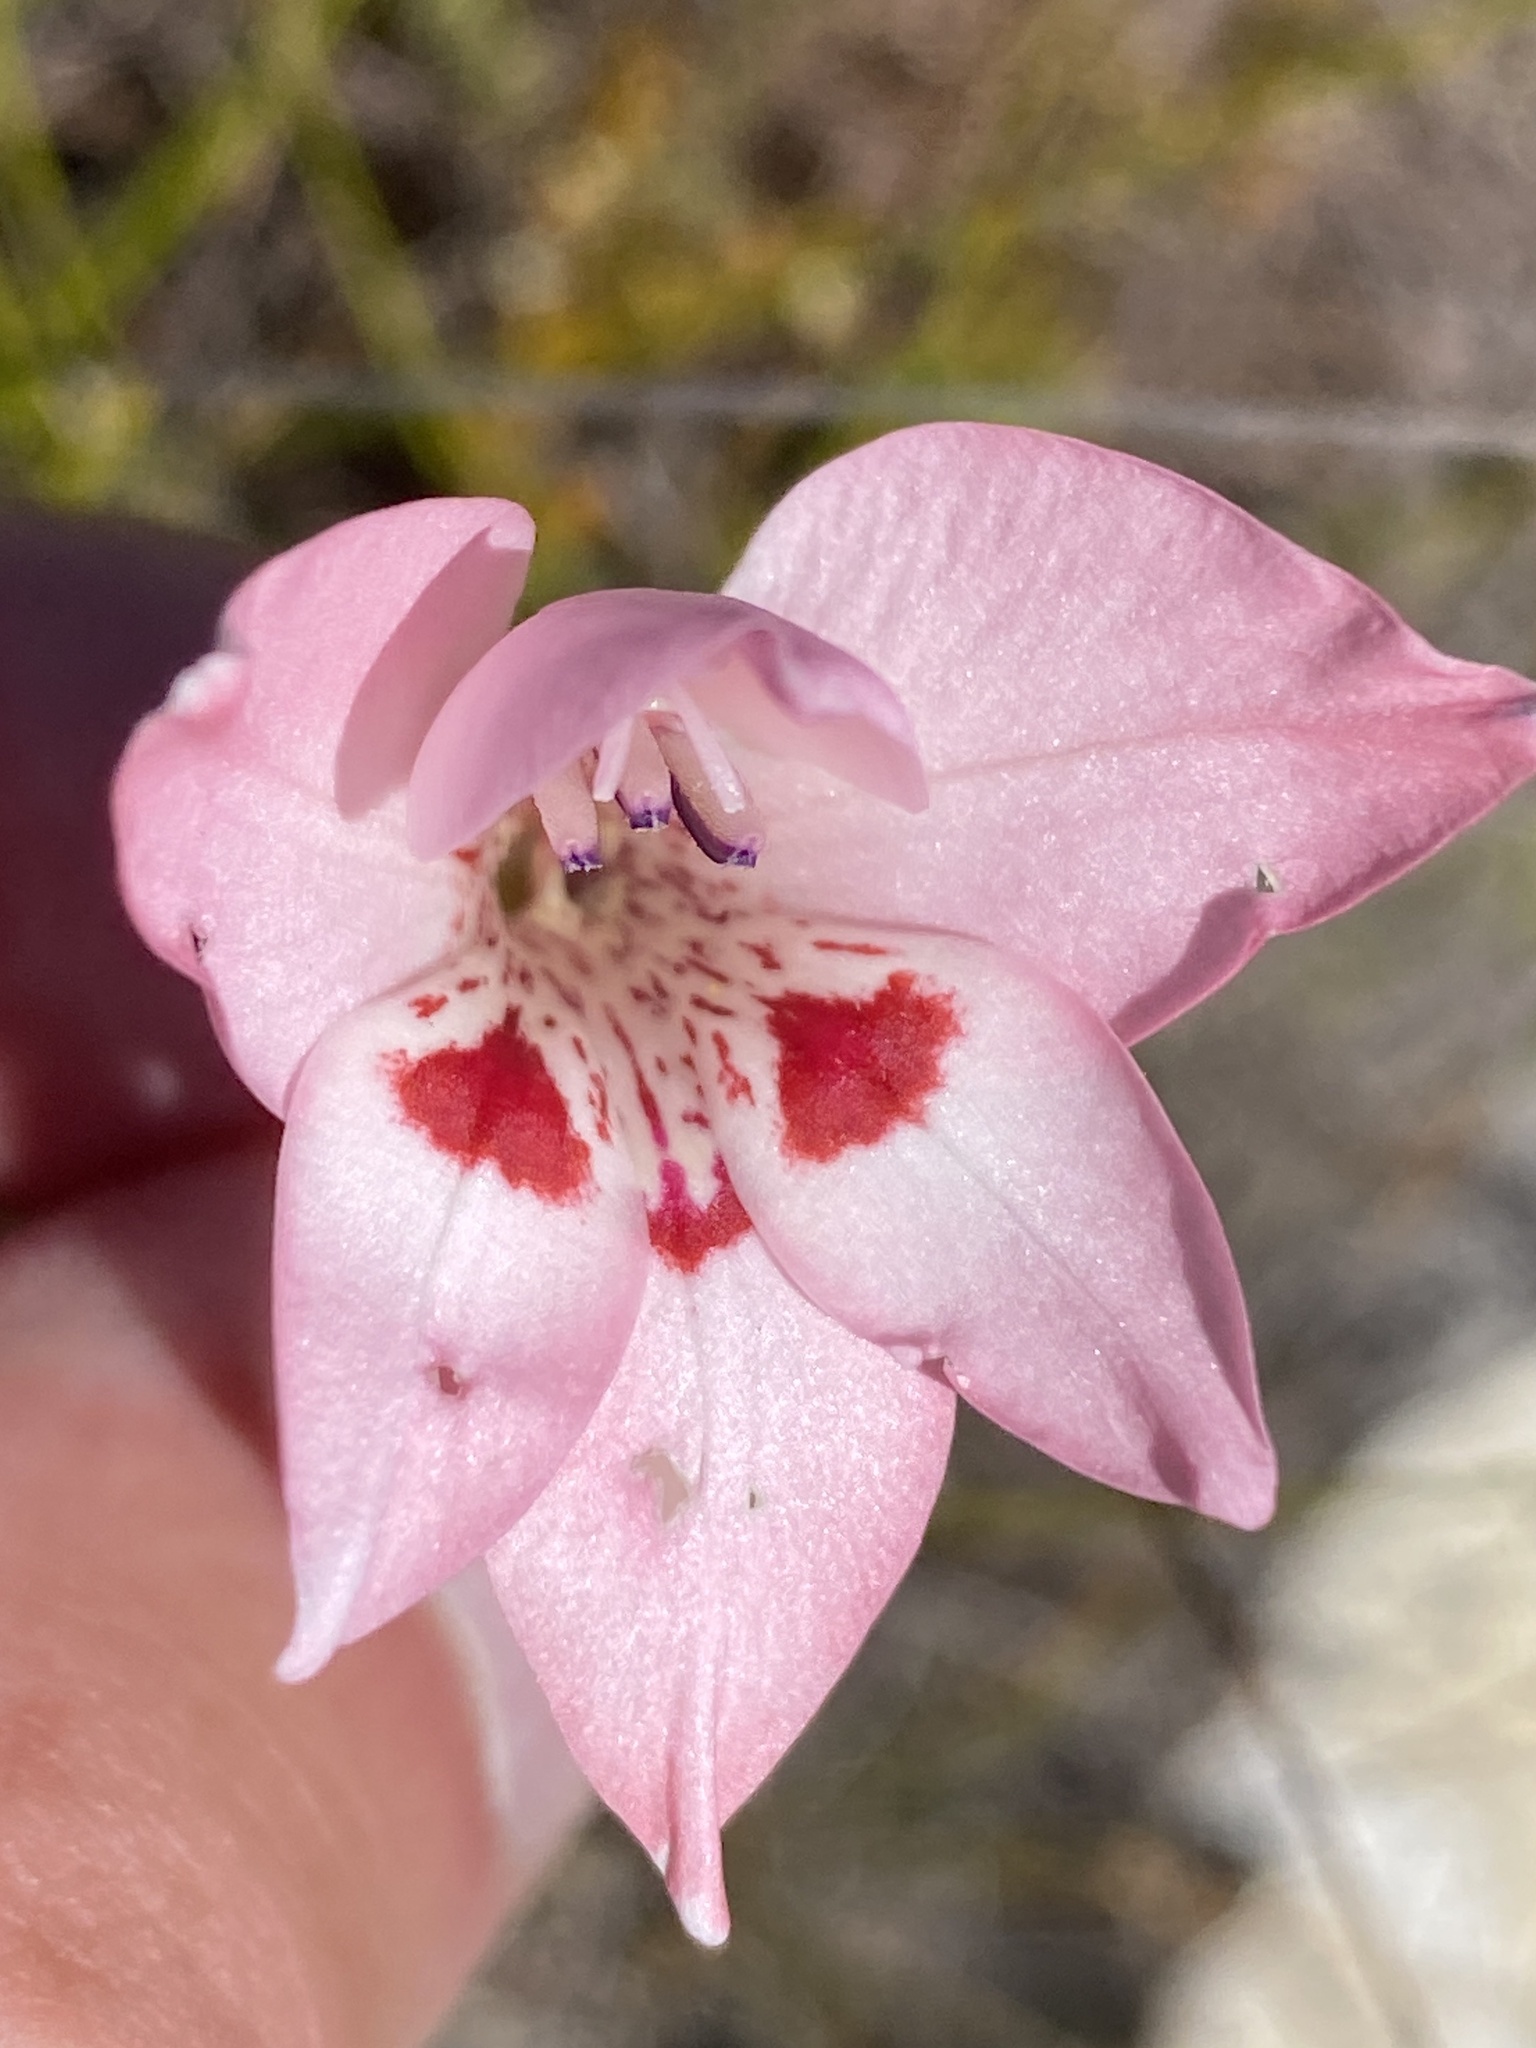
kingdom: Plantae
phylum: Tracheophyta
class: Liliopsida
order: Asparagales
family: Iridaceae
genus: Gladiolus
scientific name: Gladiolus debilis
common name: Painted-lady
